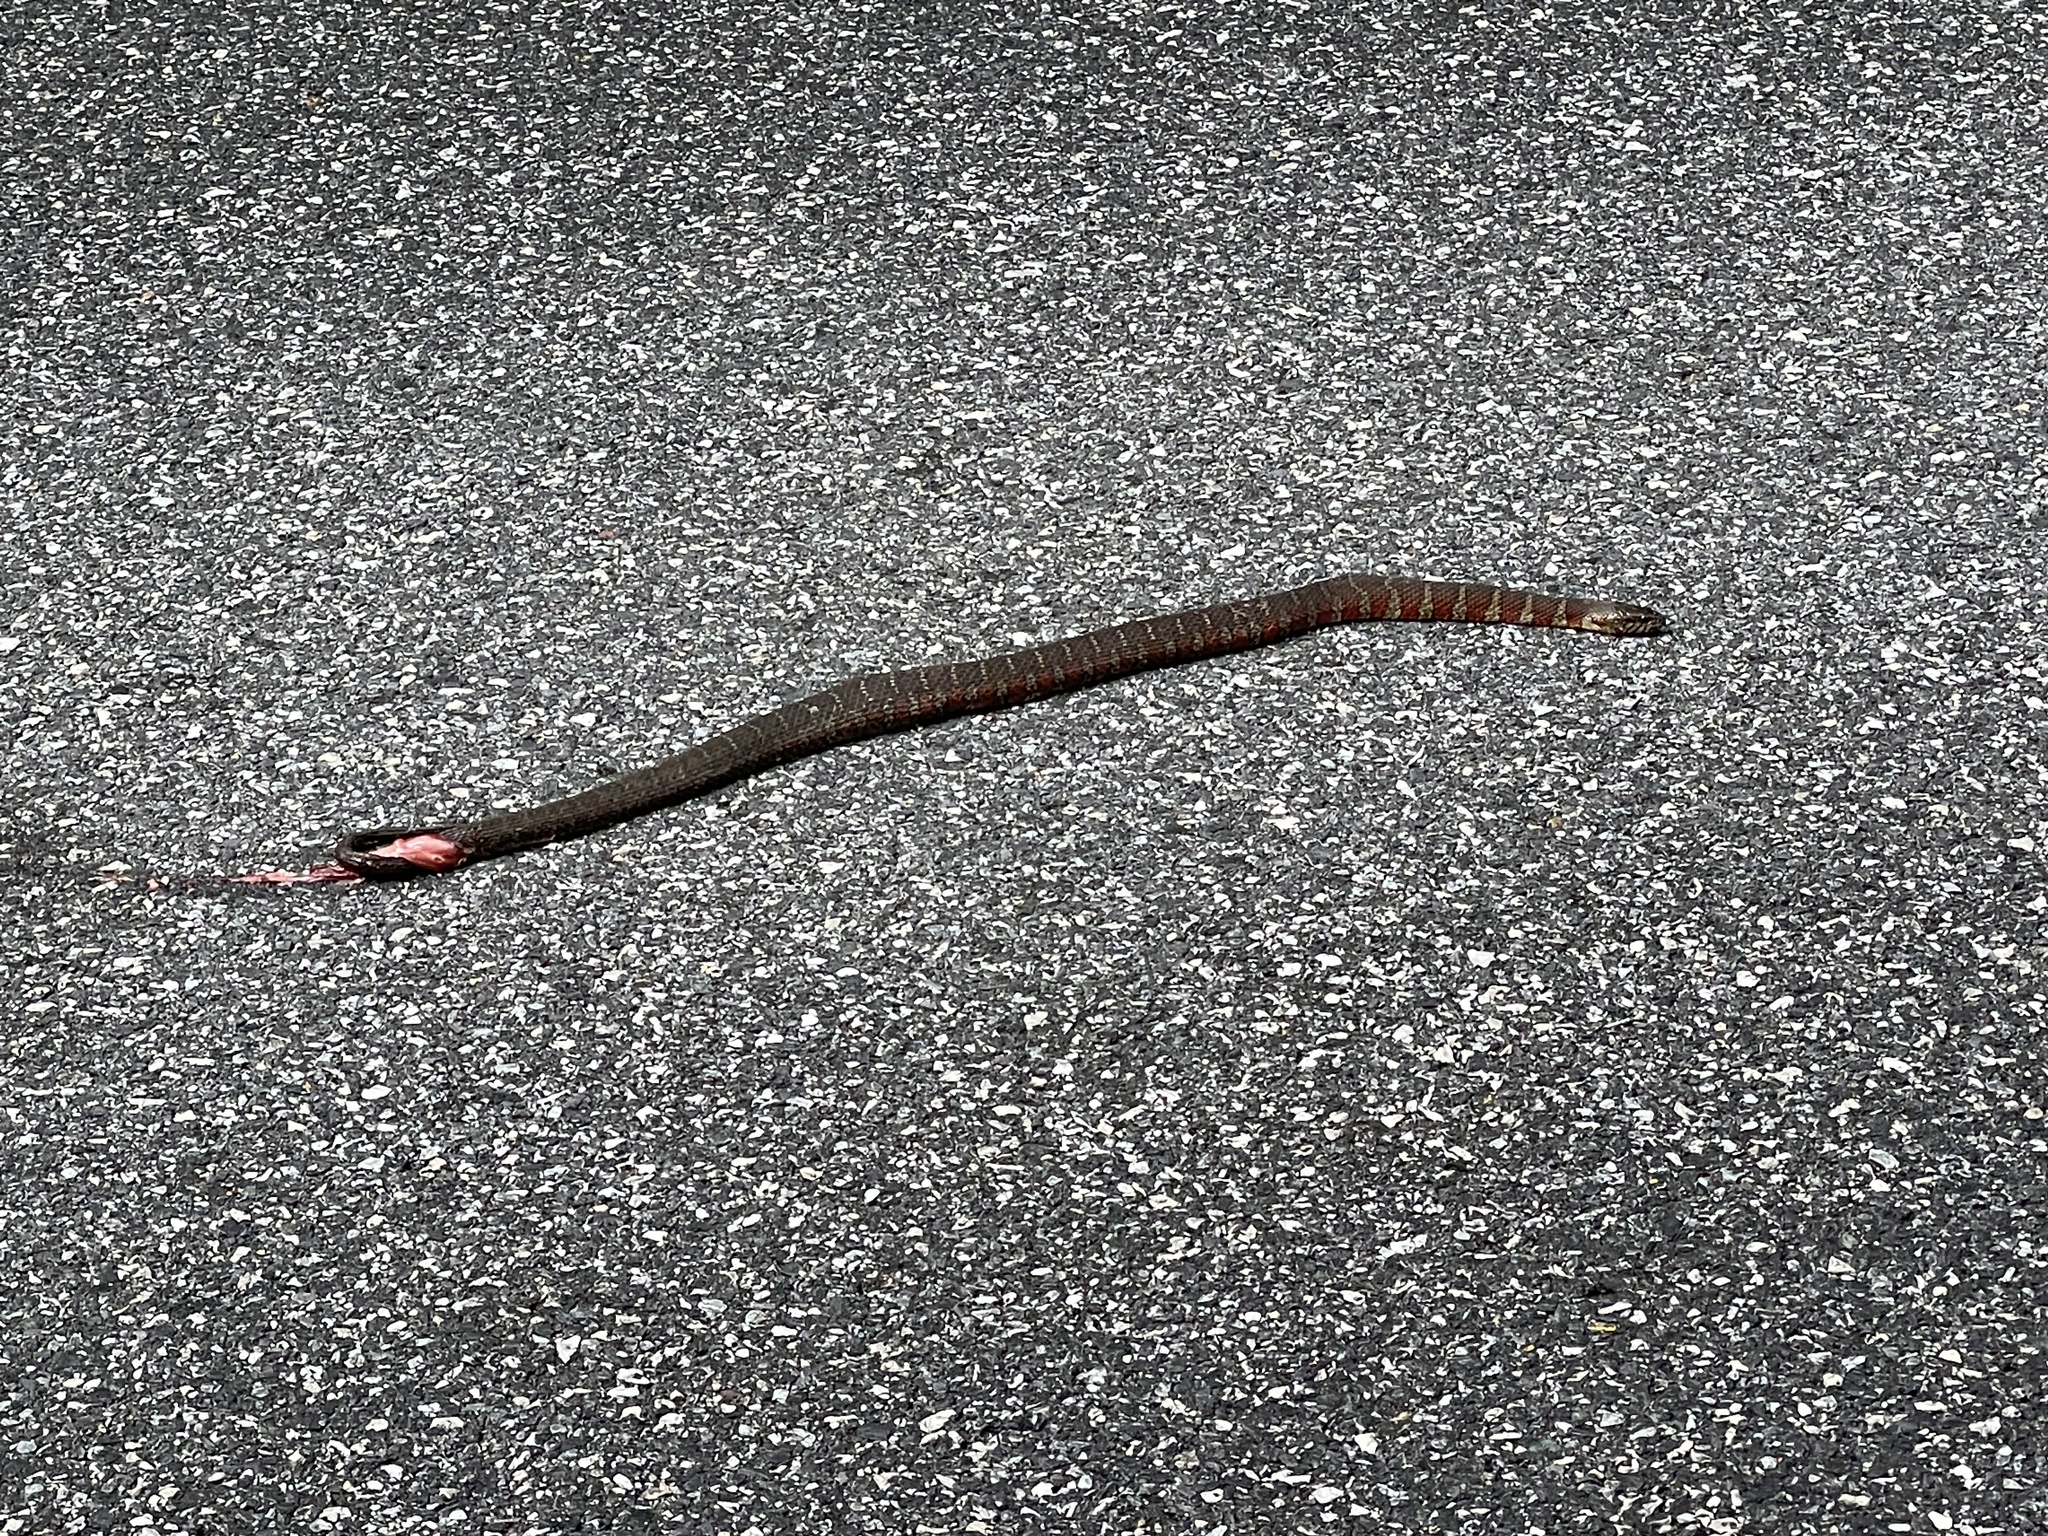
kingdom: Animalia
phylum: Chordata
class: Squamata
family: Colubridae
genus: Nerodia
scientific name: Nerodia sipedon
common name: Northern water snake
